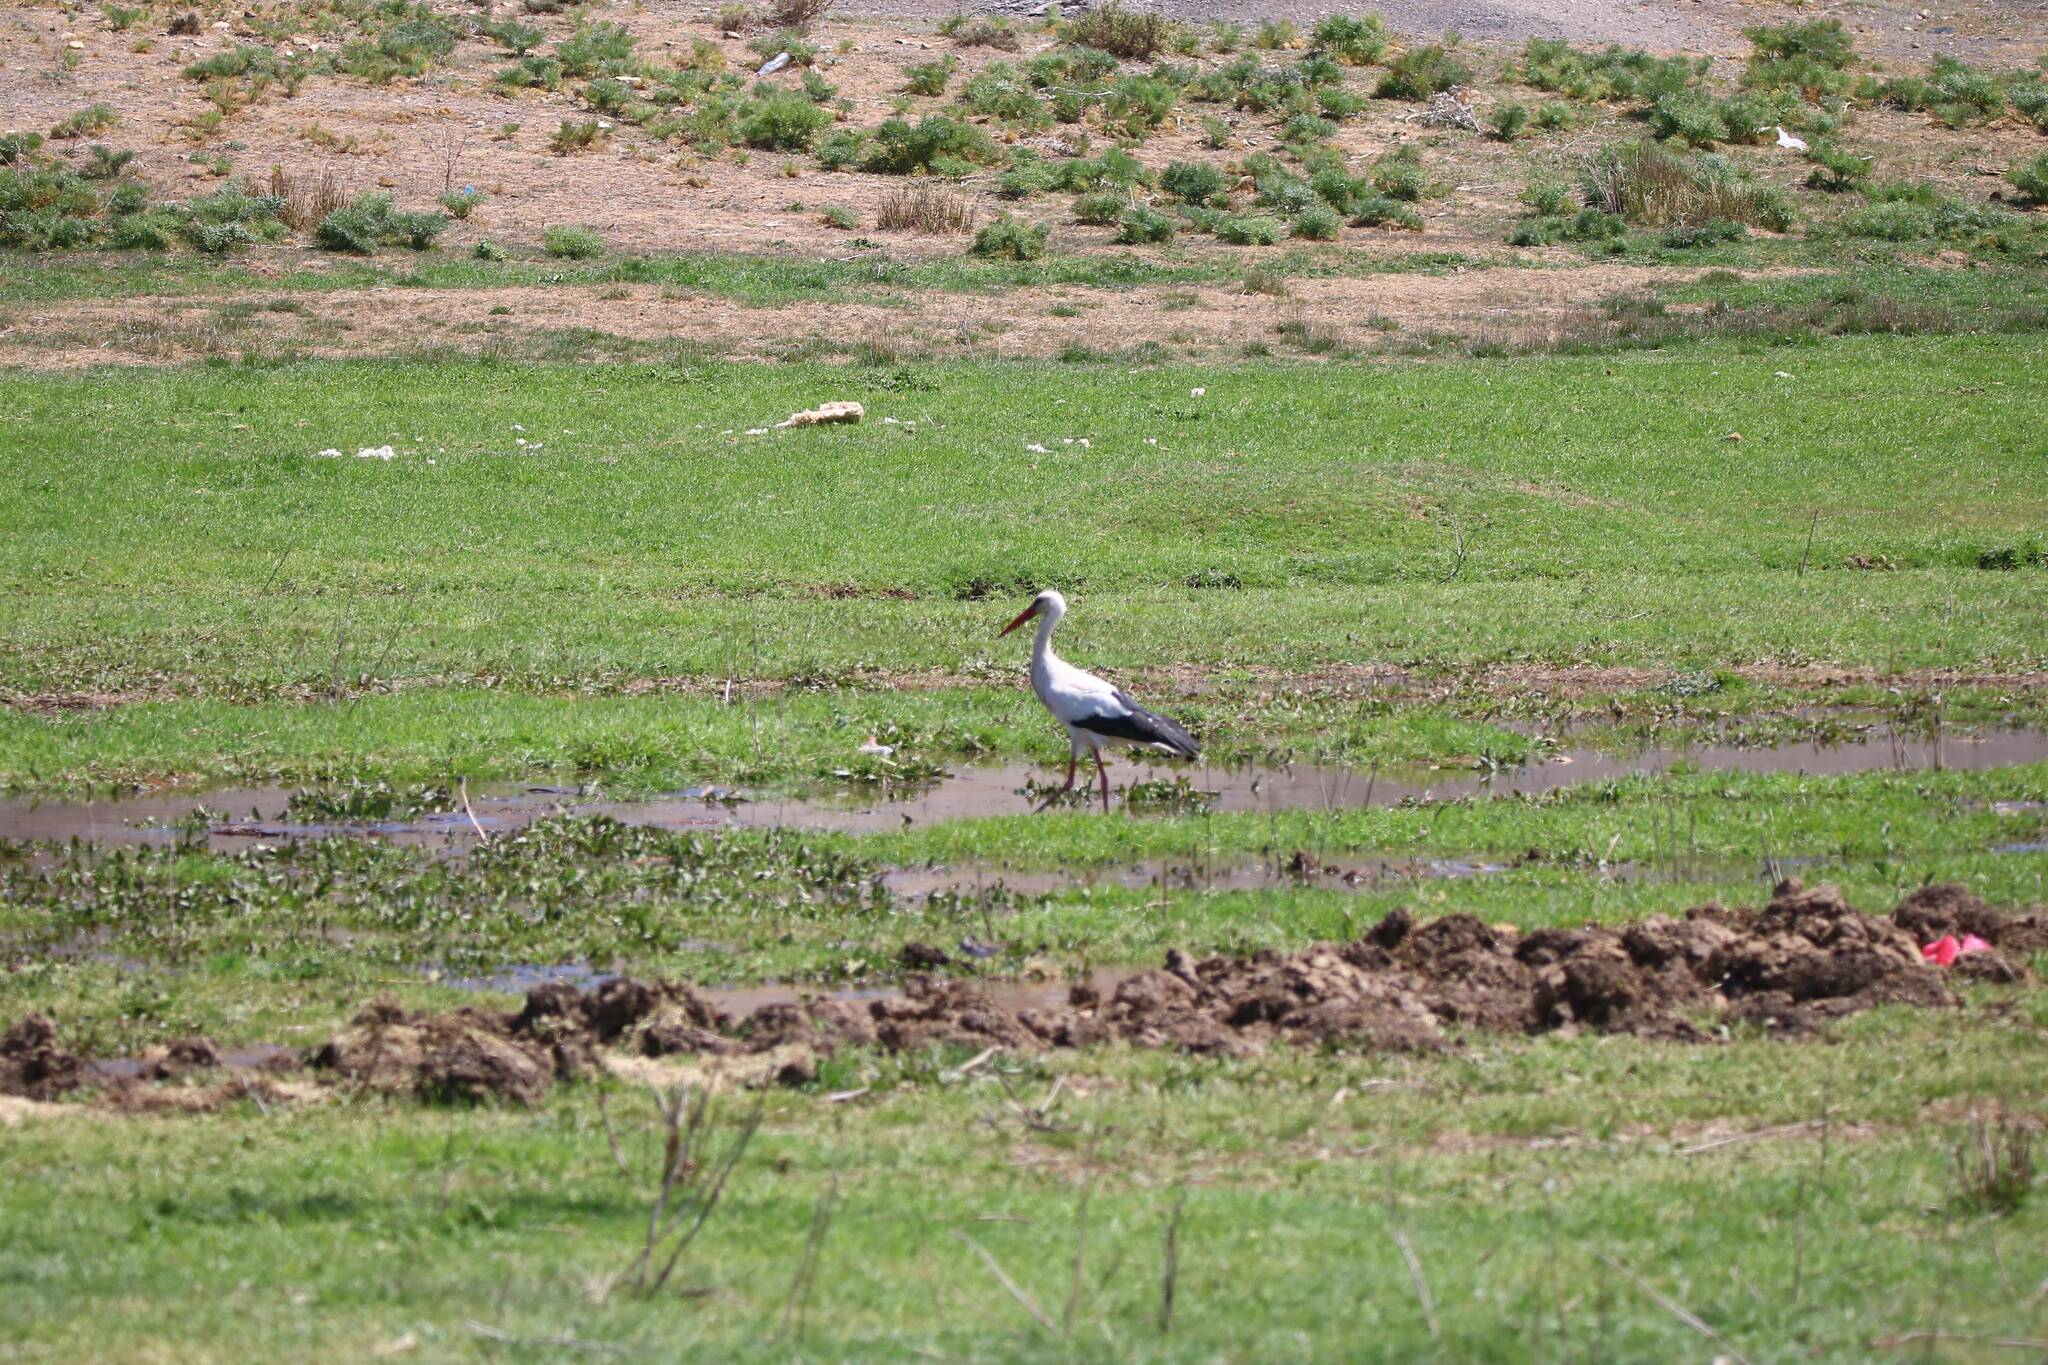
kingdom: Animalia
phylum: Chordata
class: Aves
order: Ciconiiformes
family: Ciconiidae
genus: Ciconia
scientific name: Ciconia ciconia
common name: White stork
